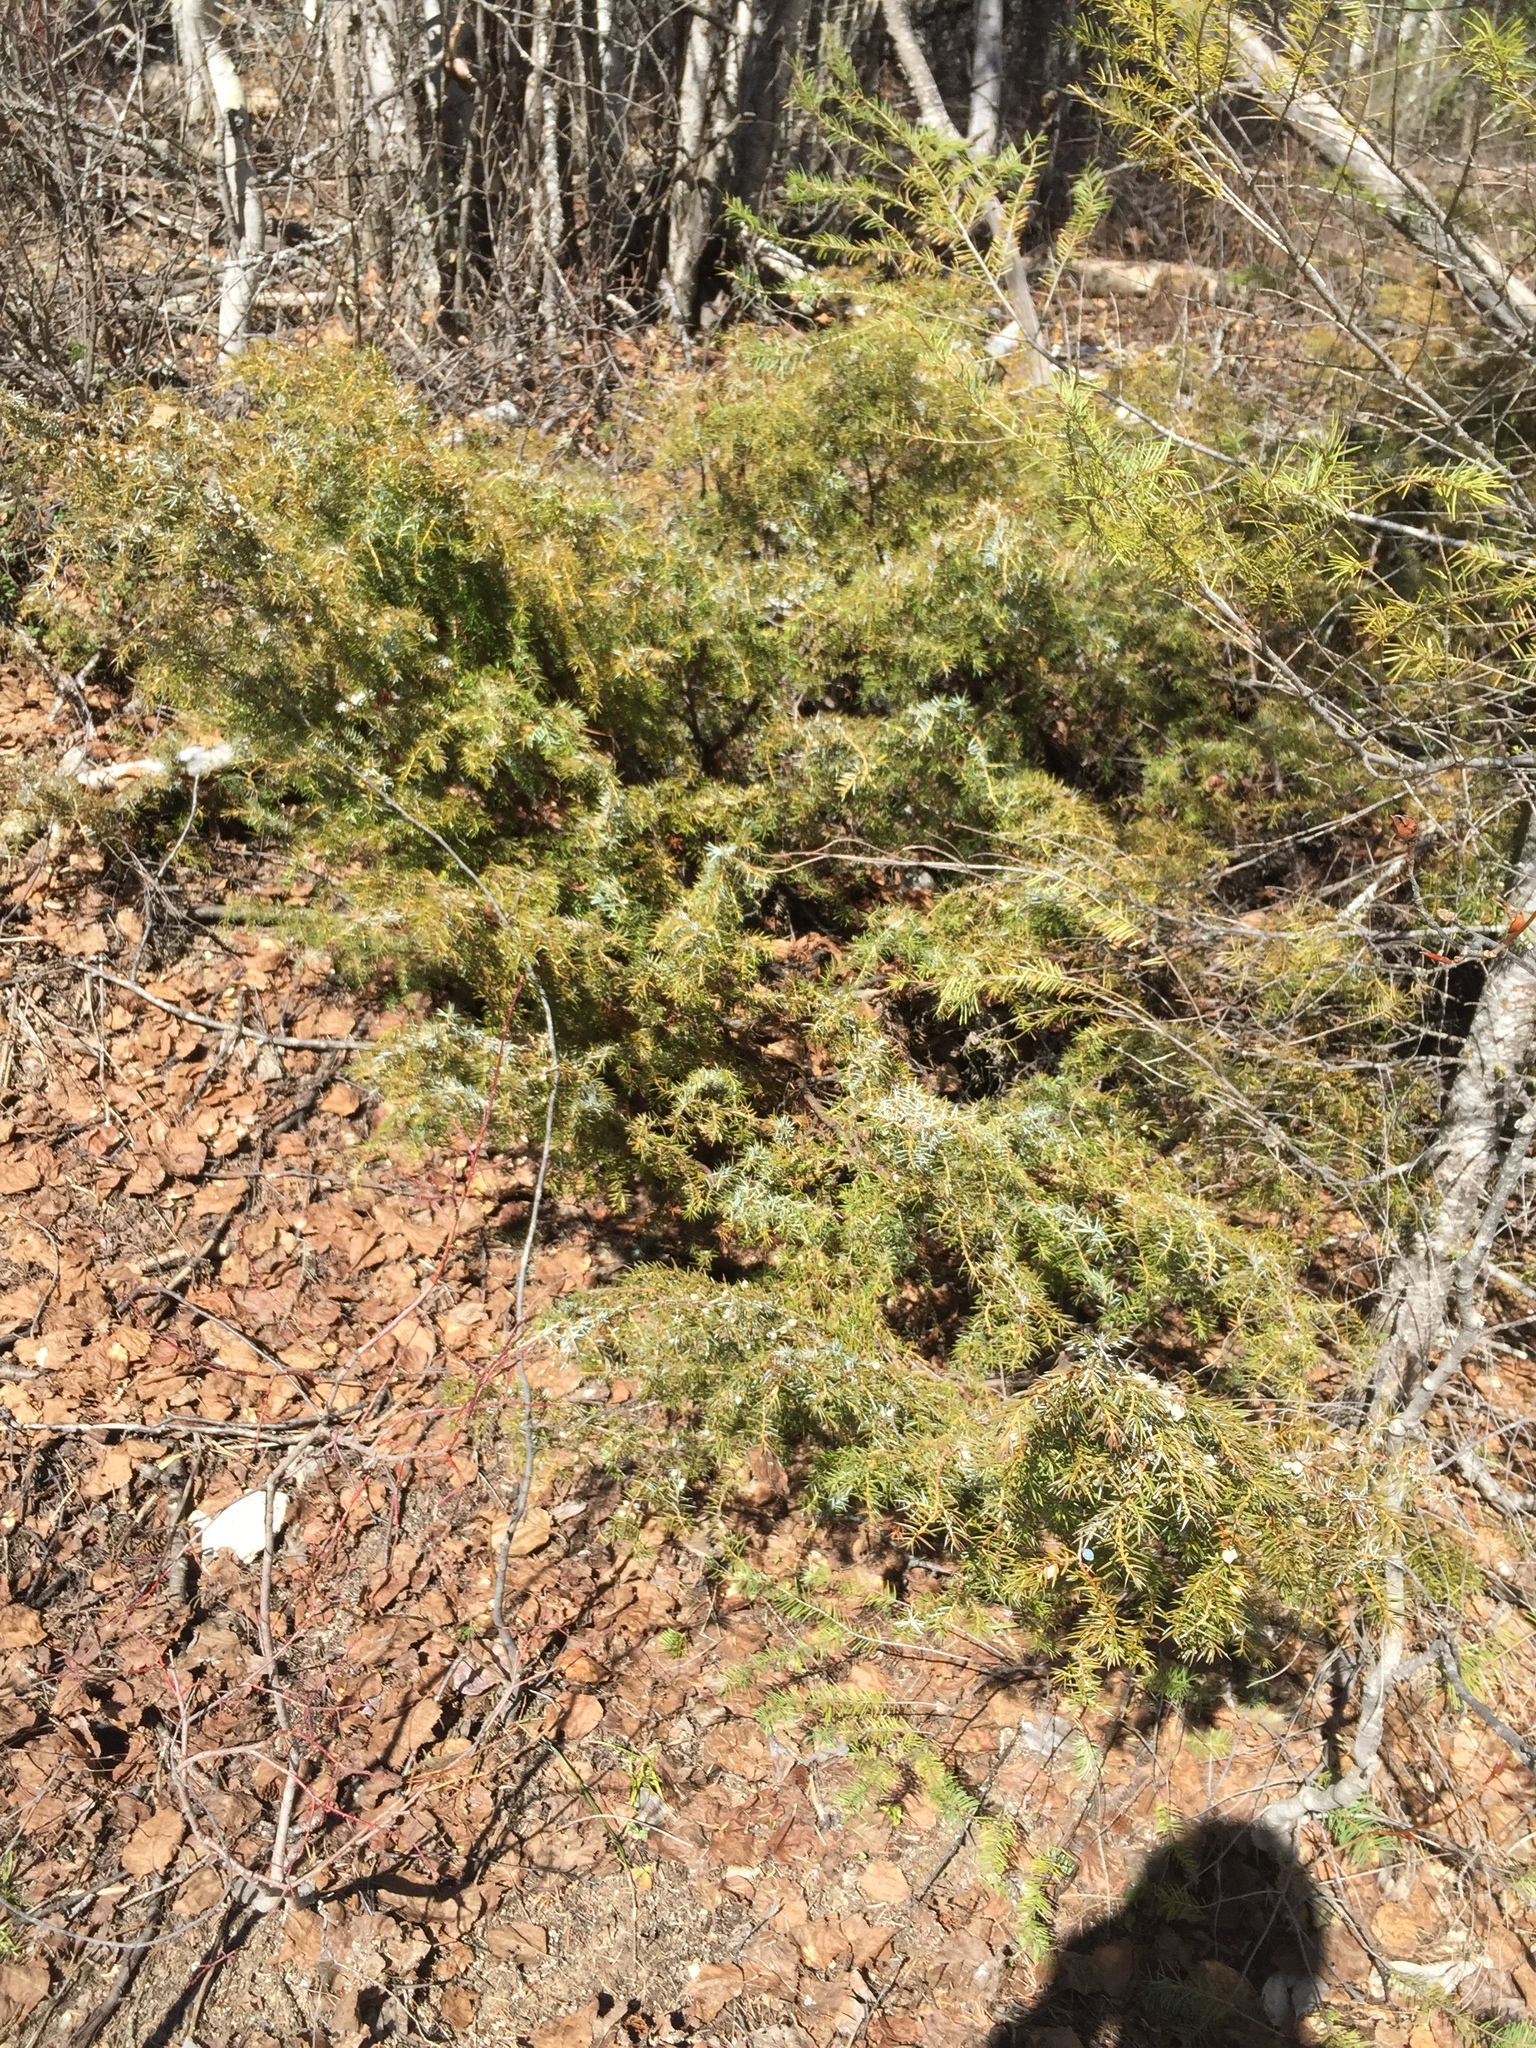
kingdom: Plantae
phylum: Tracheophyta
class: Pinopsida
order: Pinales
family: Cupressaceae
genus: Juniperus
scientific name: Juniperus communis
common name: Common juniper
